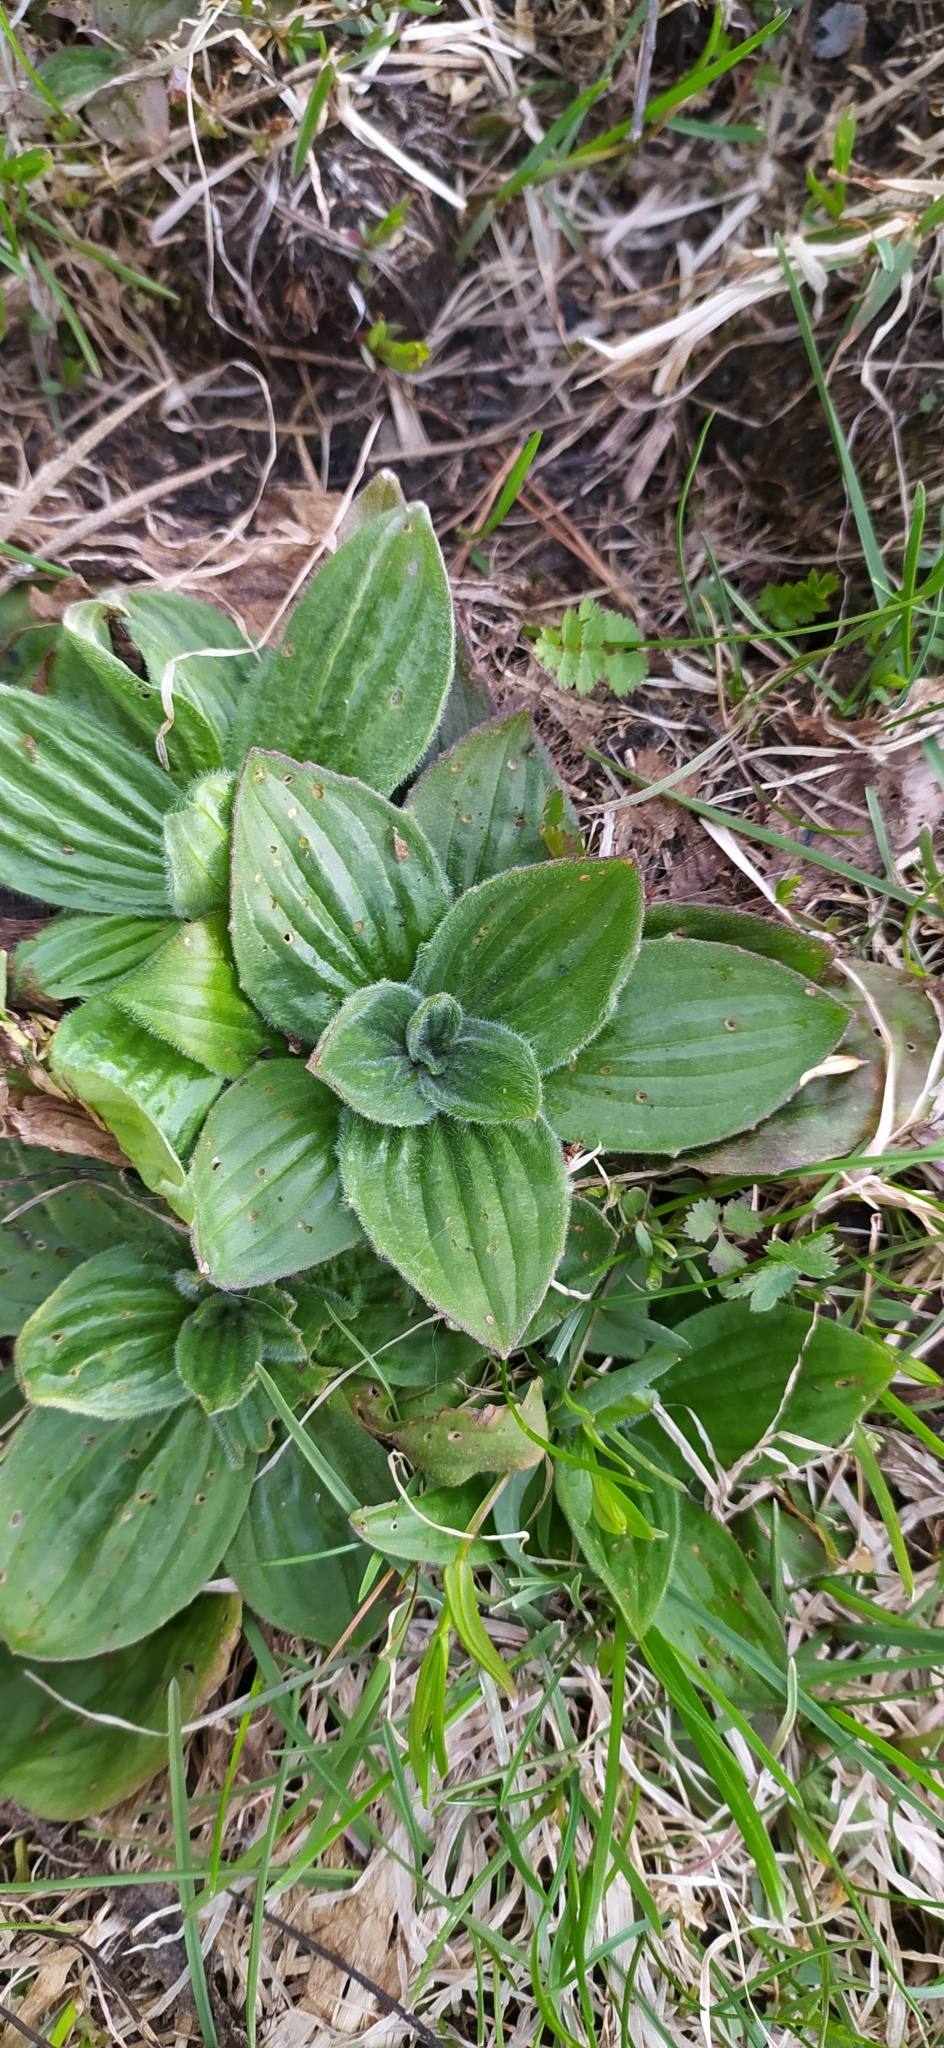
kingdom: Plantae
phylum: Tracheophyta
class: Magnoliopsida
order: Lamiales
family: Plantaginaceae
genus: Plantago
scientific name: Plantago media
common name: Hoary plantain
